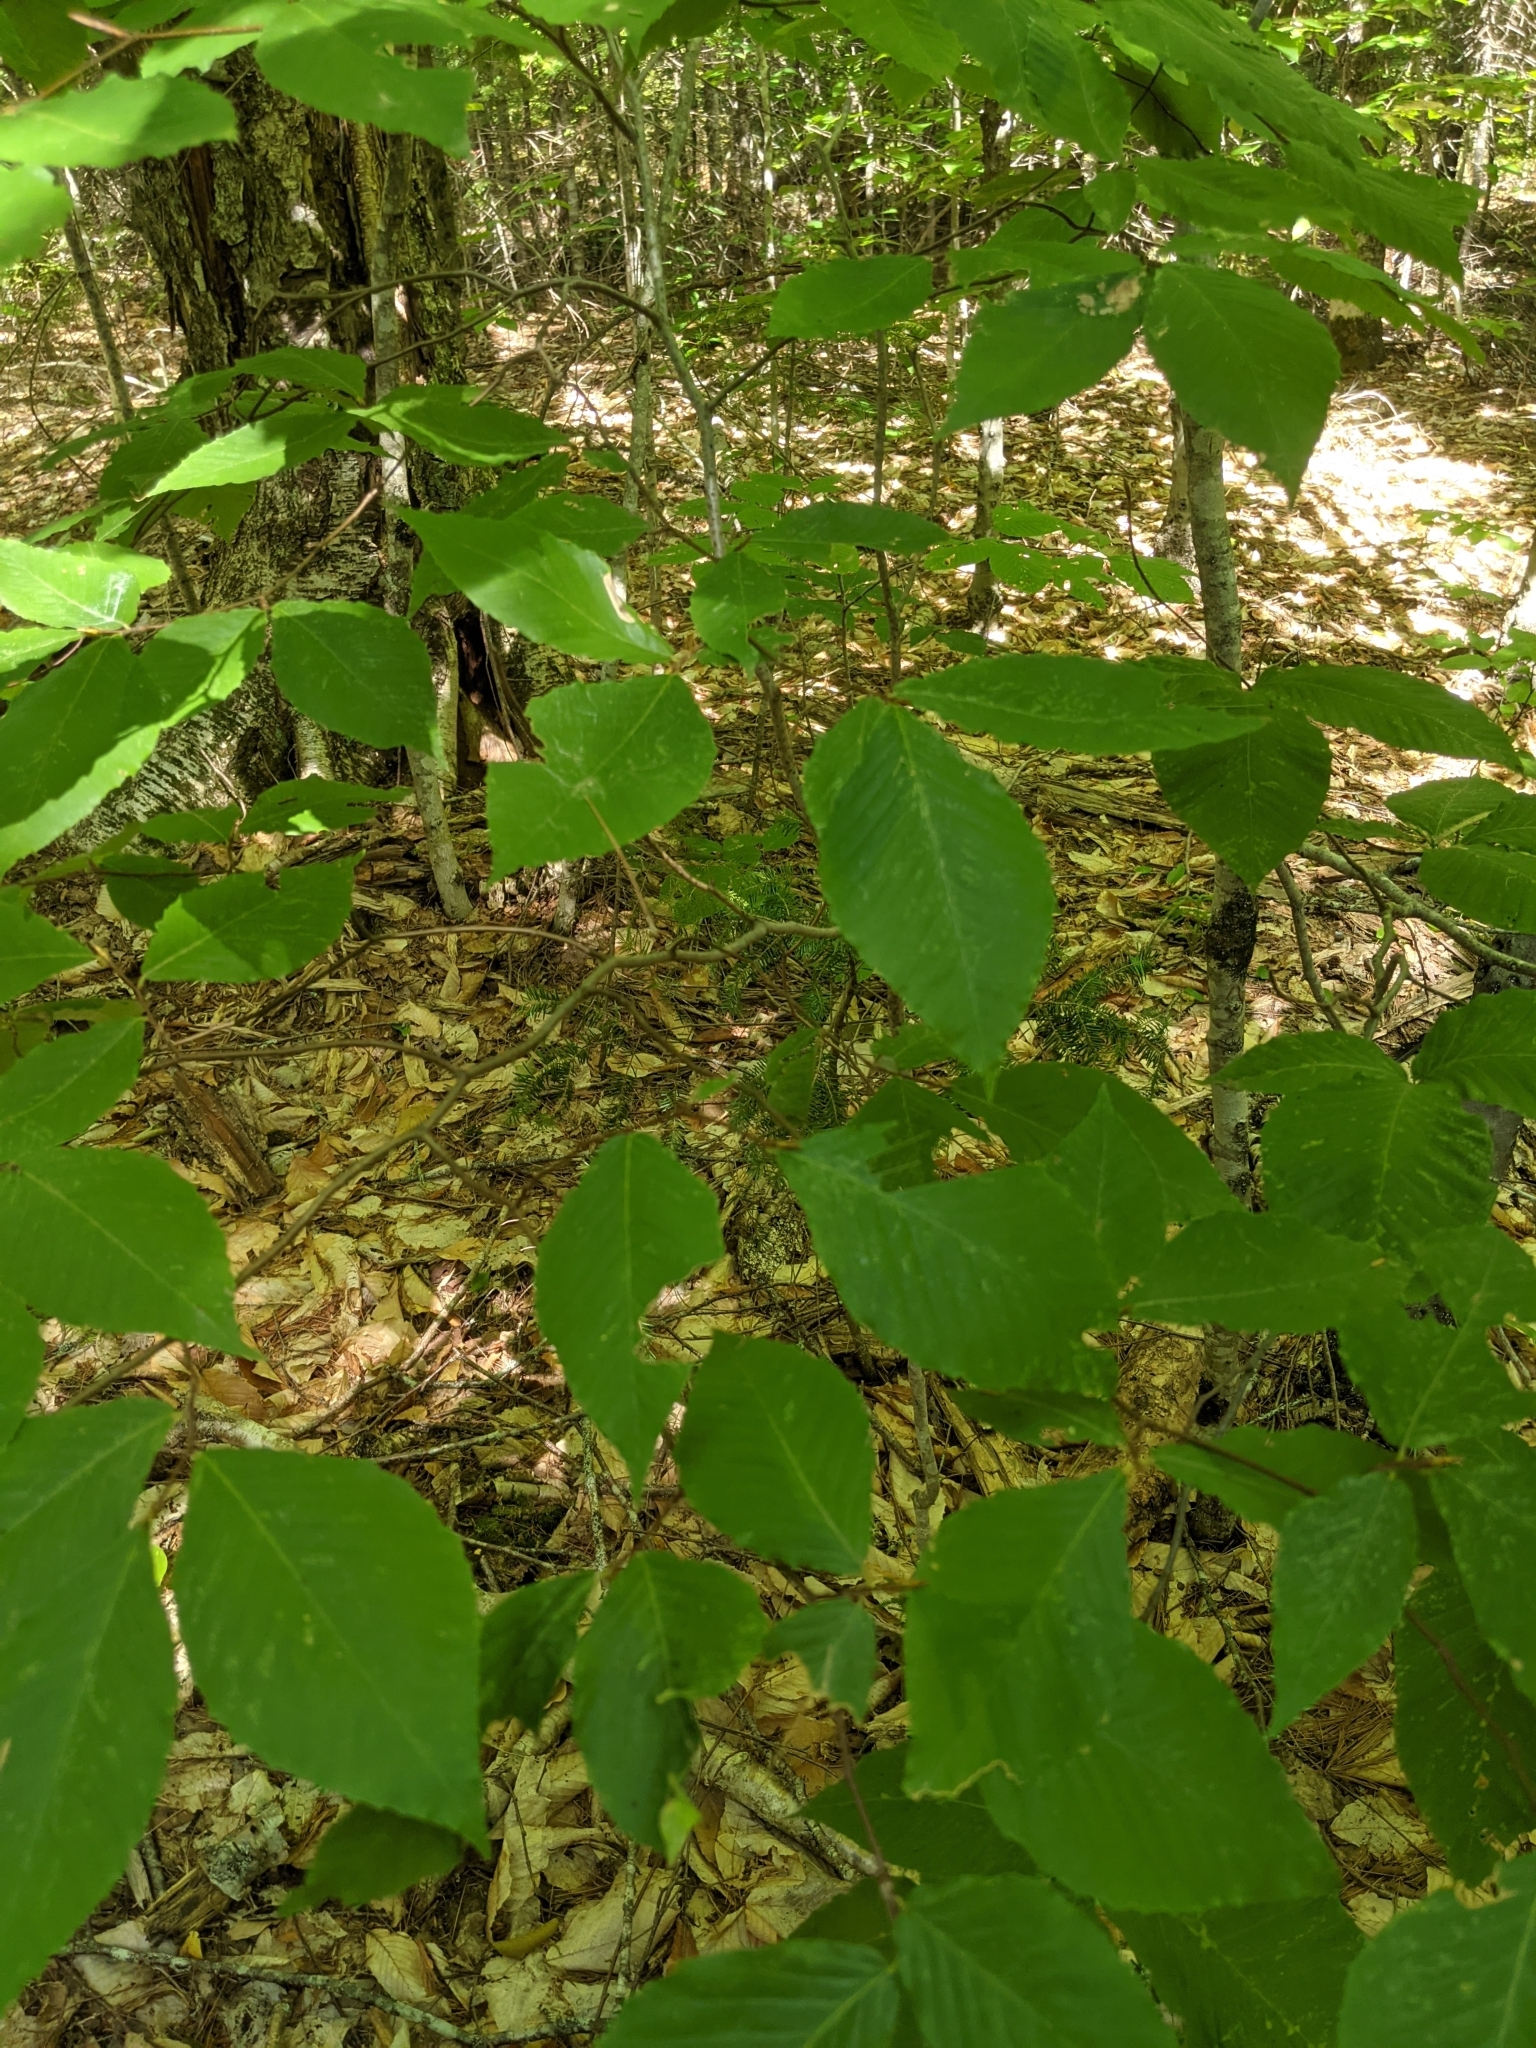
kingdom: Plantae
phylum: Tracheophyta
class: Magnoliopsida
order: Fagales
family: Fagaceae
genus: Fagus
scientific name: Fagus grandifolia
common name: American beech
